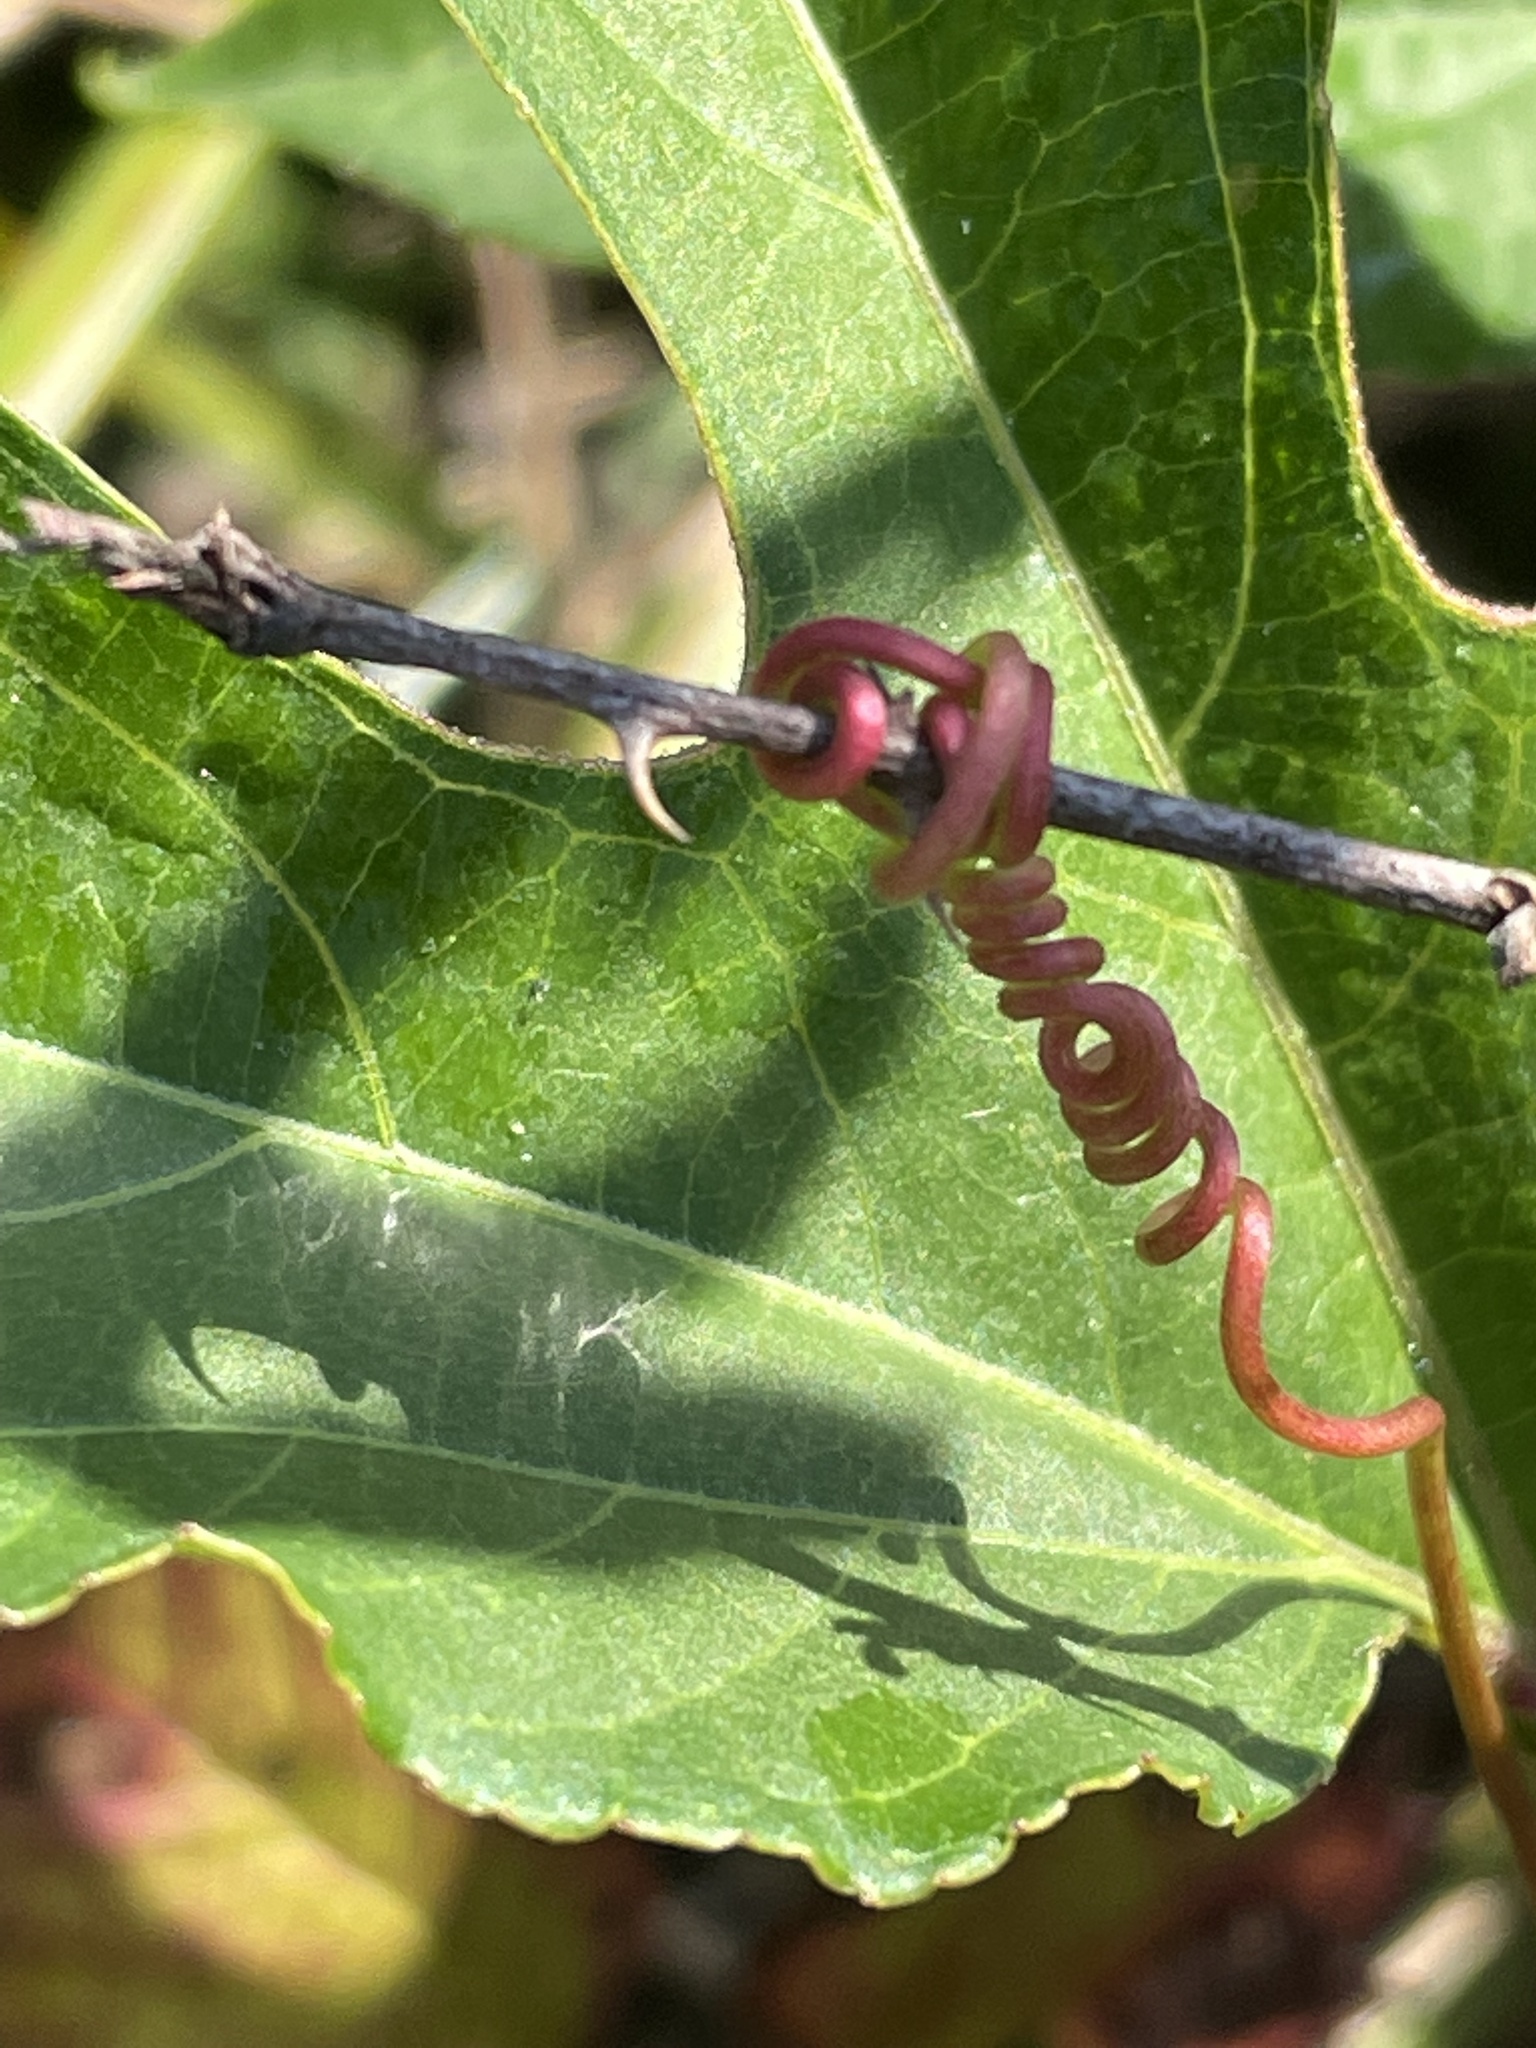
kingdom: Plantae
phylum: Tracheophyta
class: Magnoliopsida
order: Malpighiales
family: Passifloraceae
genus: Passiflora
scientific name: Passiflora incarnata
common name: Apricot-vine
